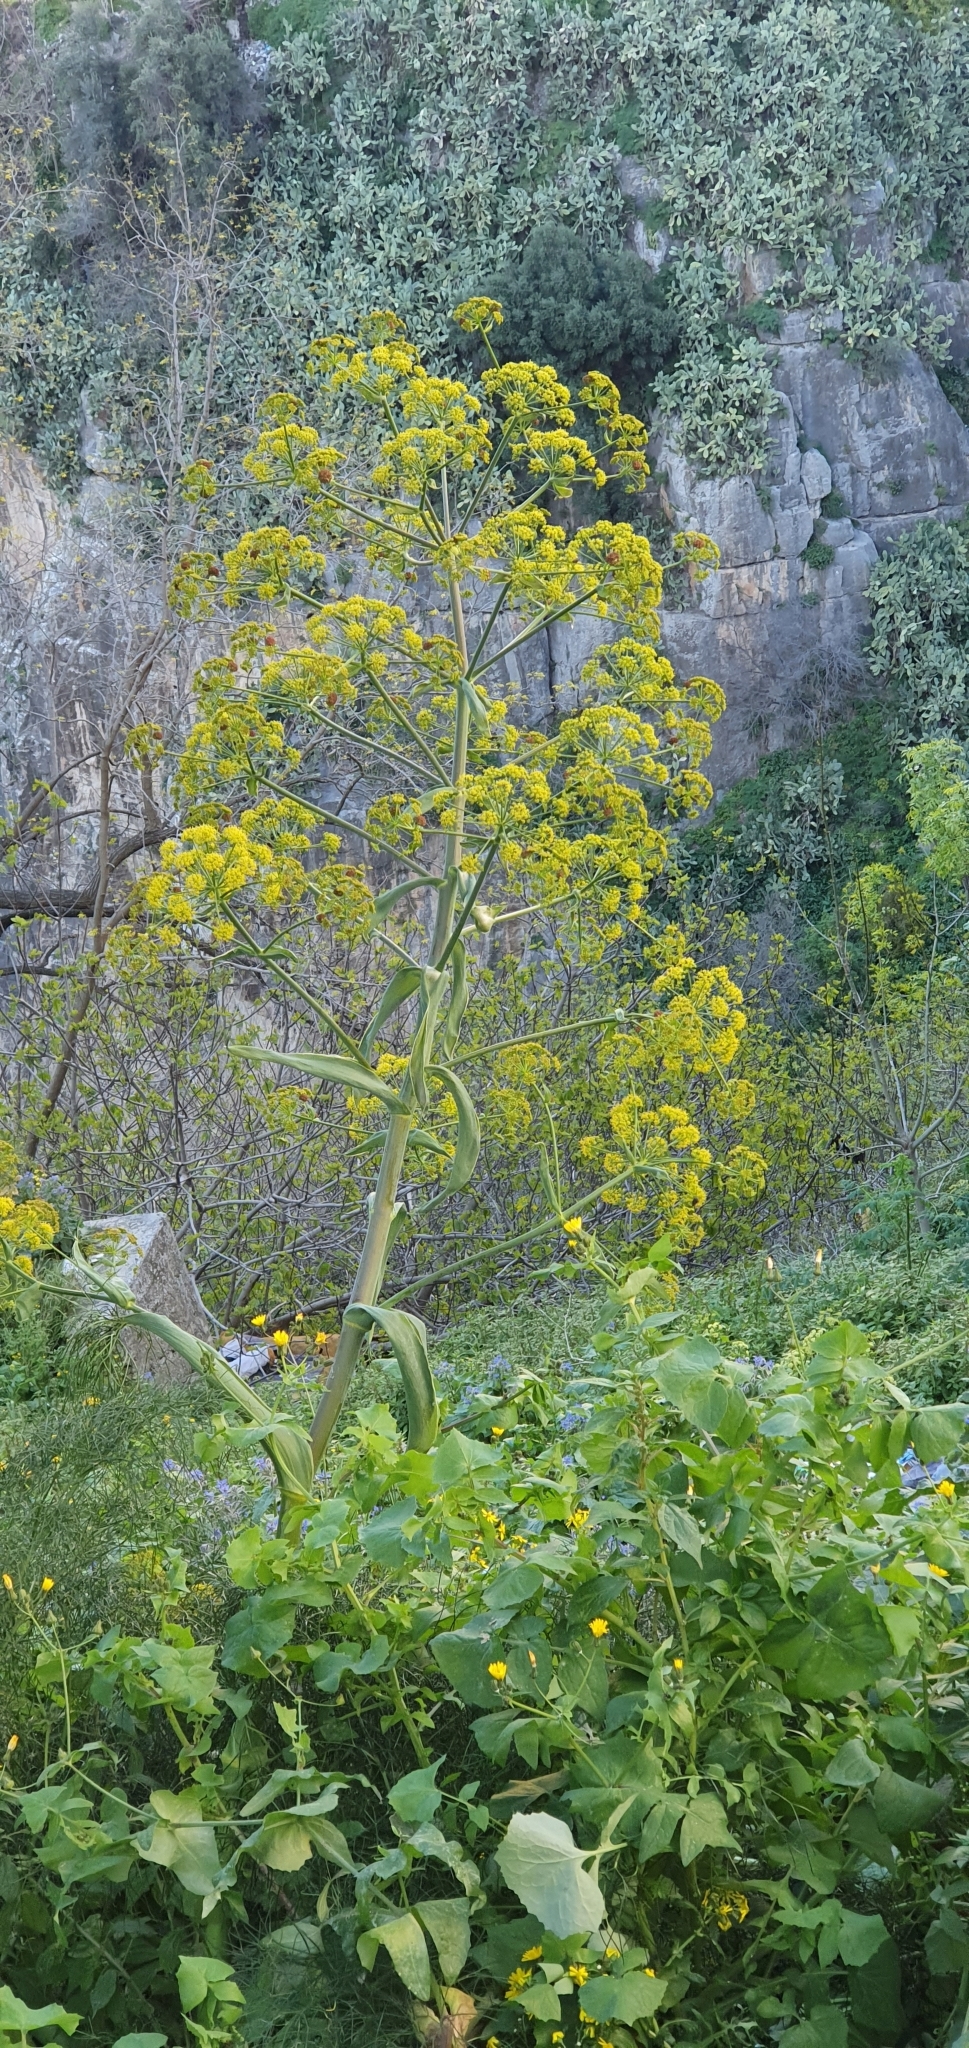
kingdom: Plantae
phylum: Tracheophyta
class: Magnoliopsida
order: Apiales
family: Apiaceae
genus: Ferula
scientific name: Ferula communis
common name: Giant fennel
